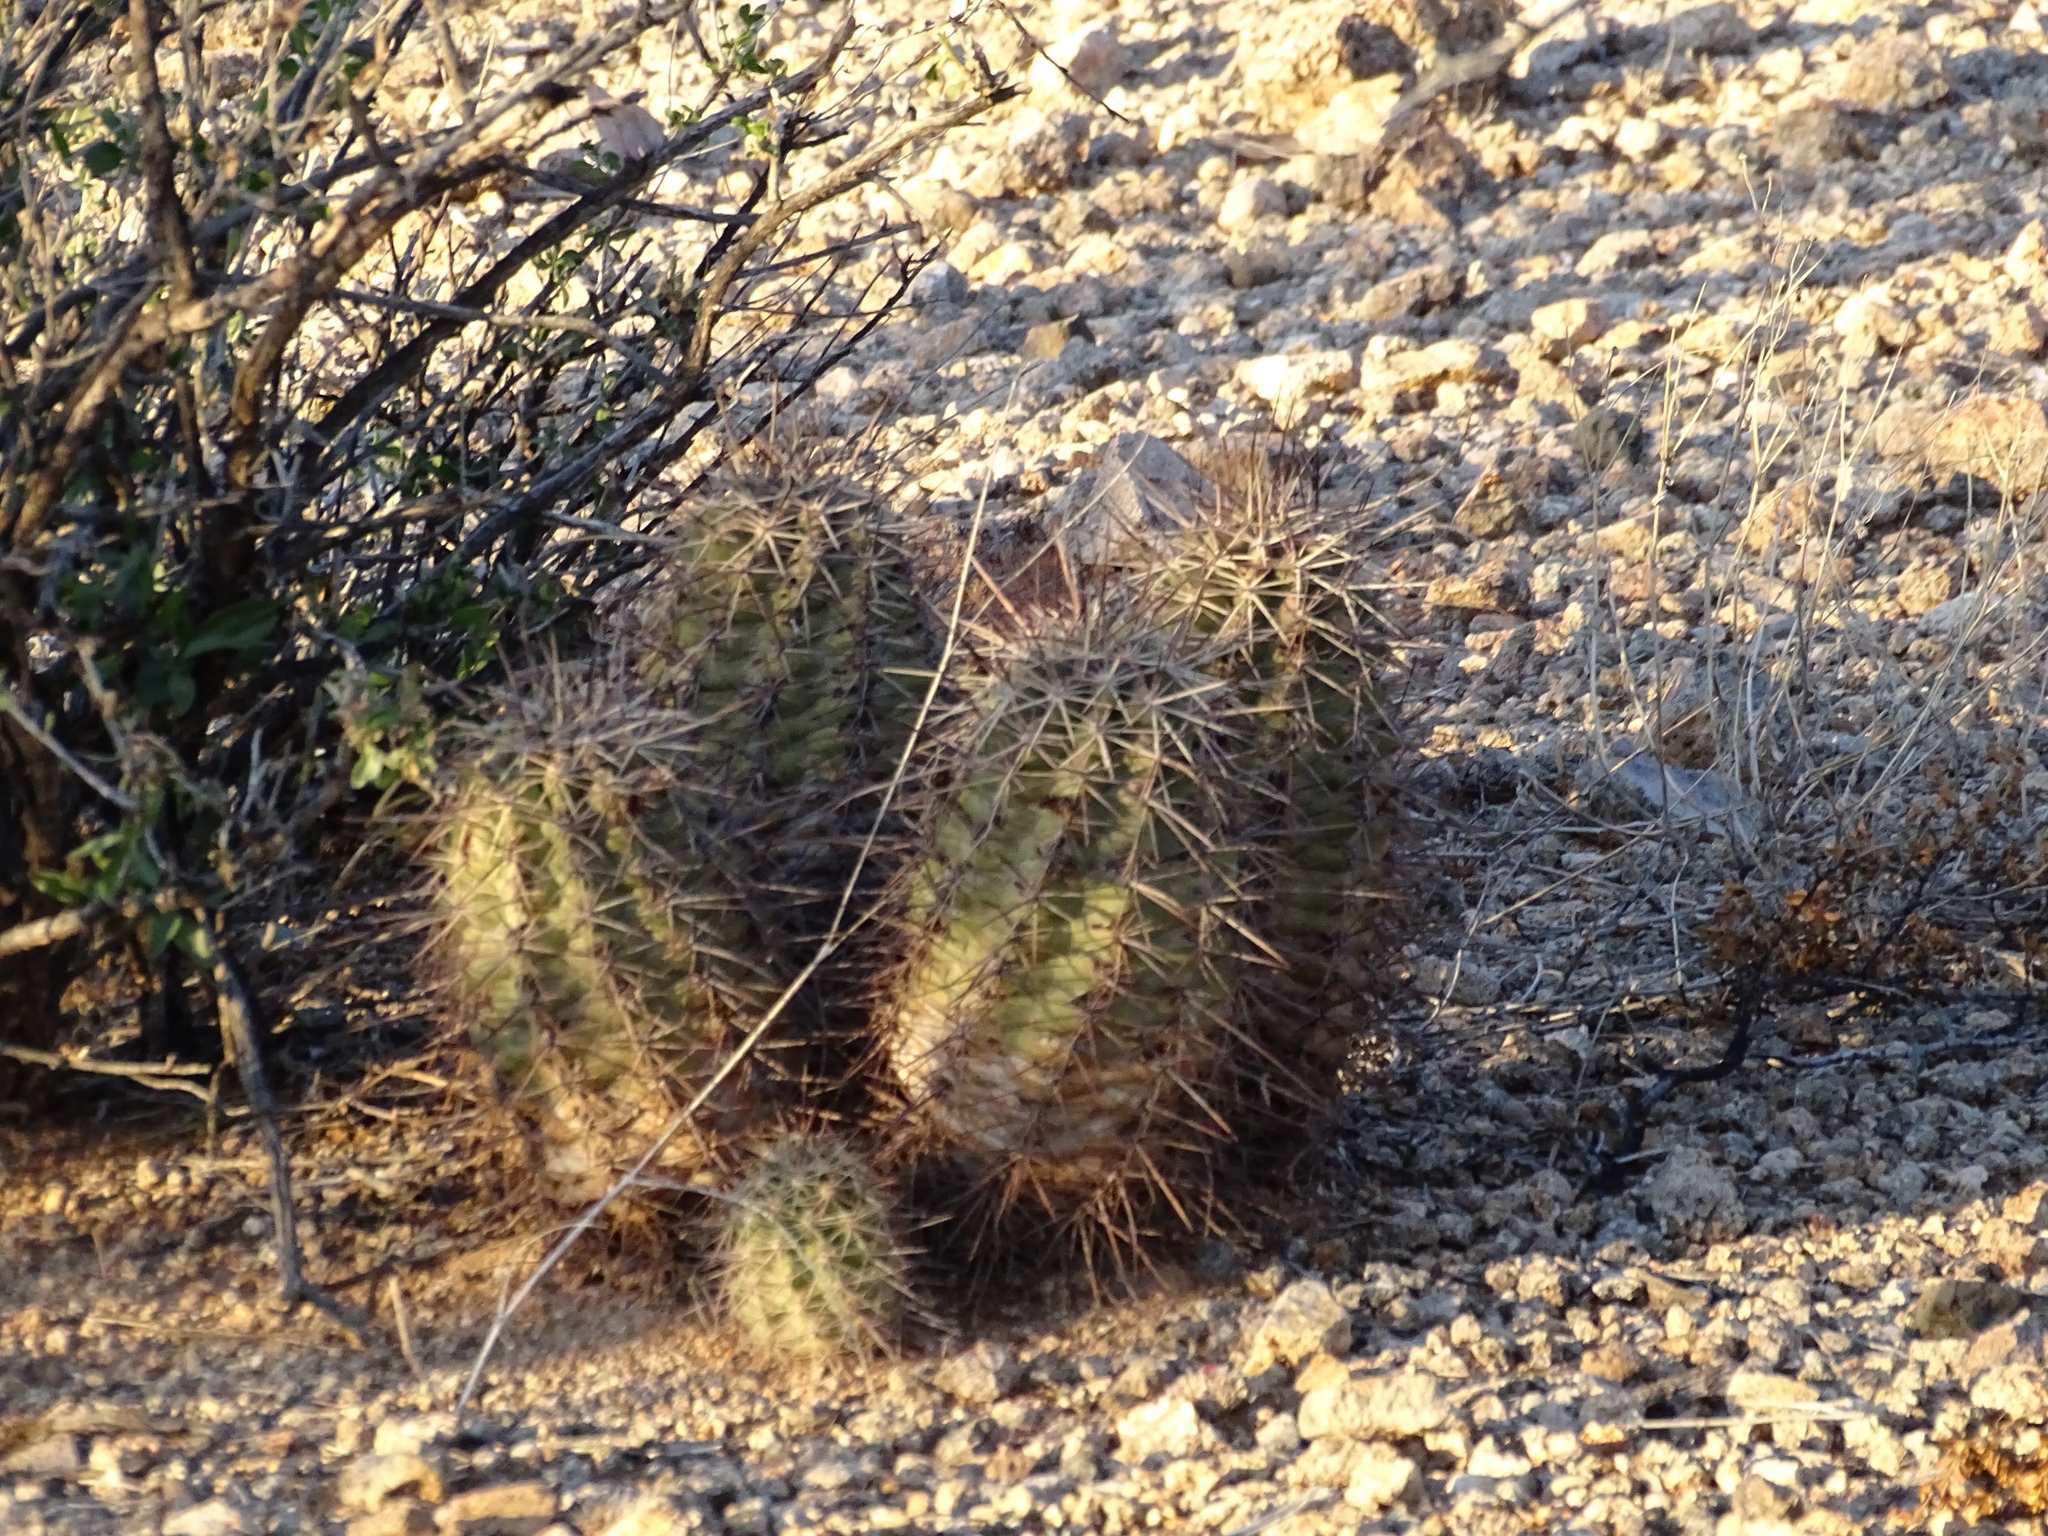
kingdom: Plantae
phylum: Tracheophyta
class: Magnoliopsida
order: Caryophyllales
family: Cactaceae
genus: Echinocereus
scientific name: Echinocereus coccineus
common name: Scarlet hedgehog cactus
